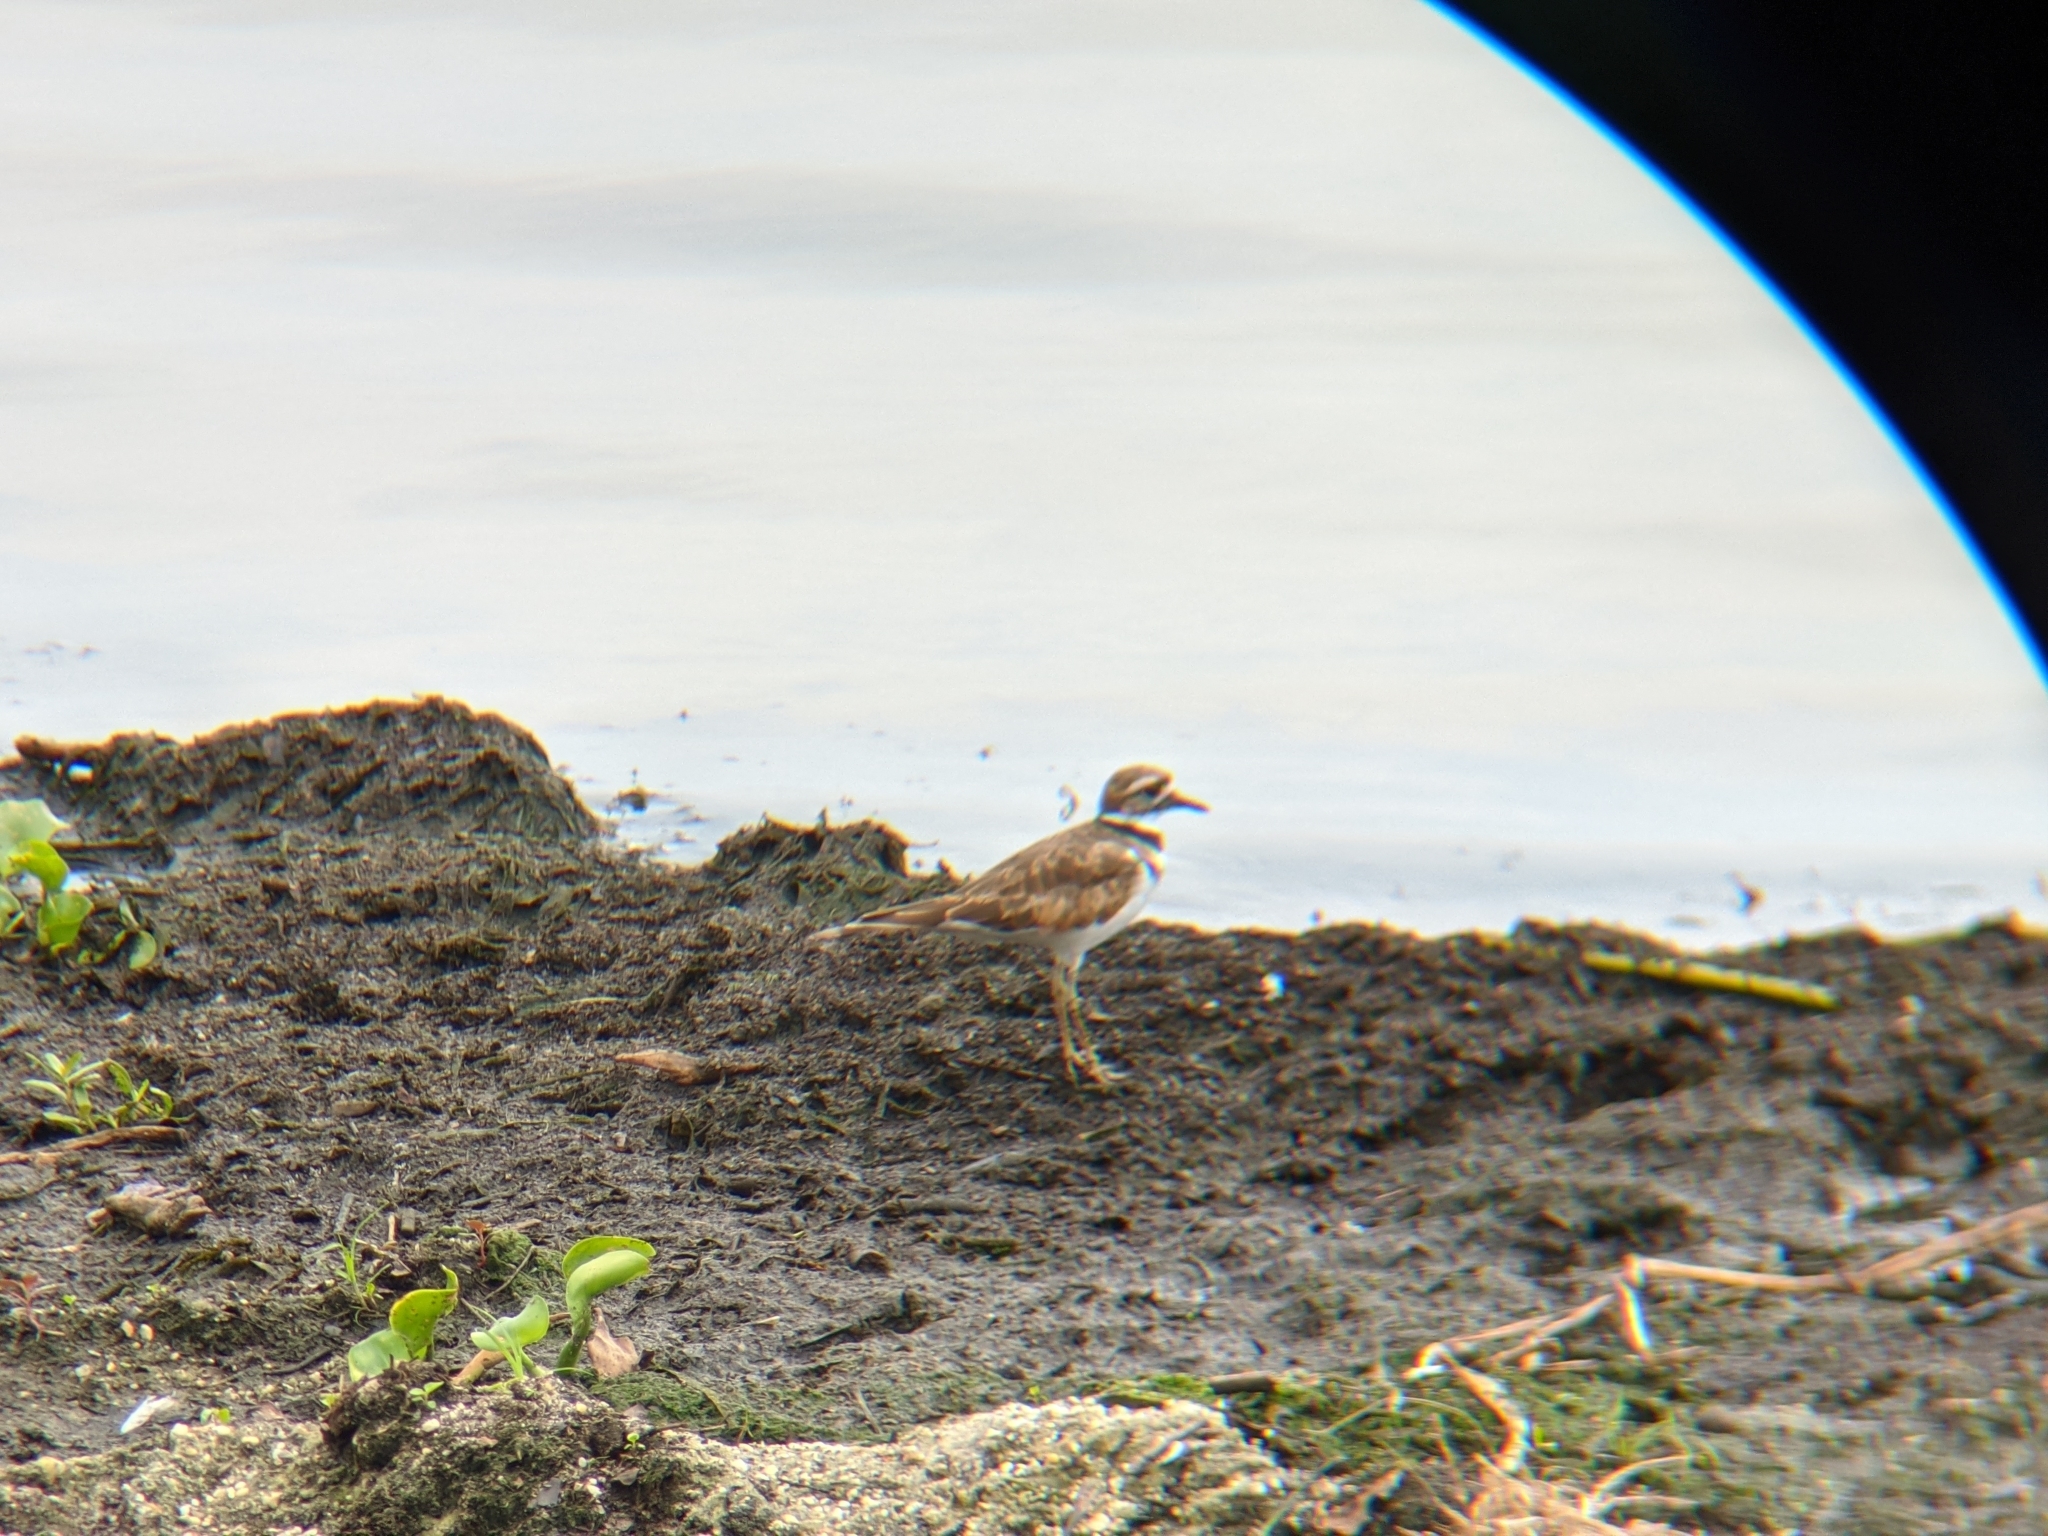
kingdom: Animalia
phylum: Chordata
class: Aves
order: Charadriiformes
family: Charadriidae
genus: Charadrius
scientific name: Charadrius vociferus
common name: Killdeer
